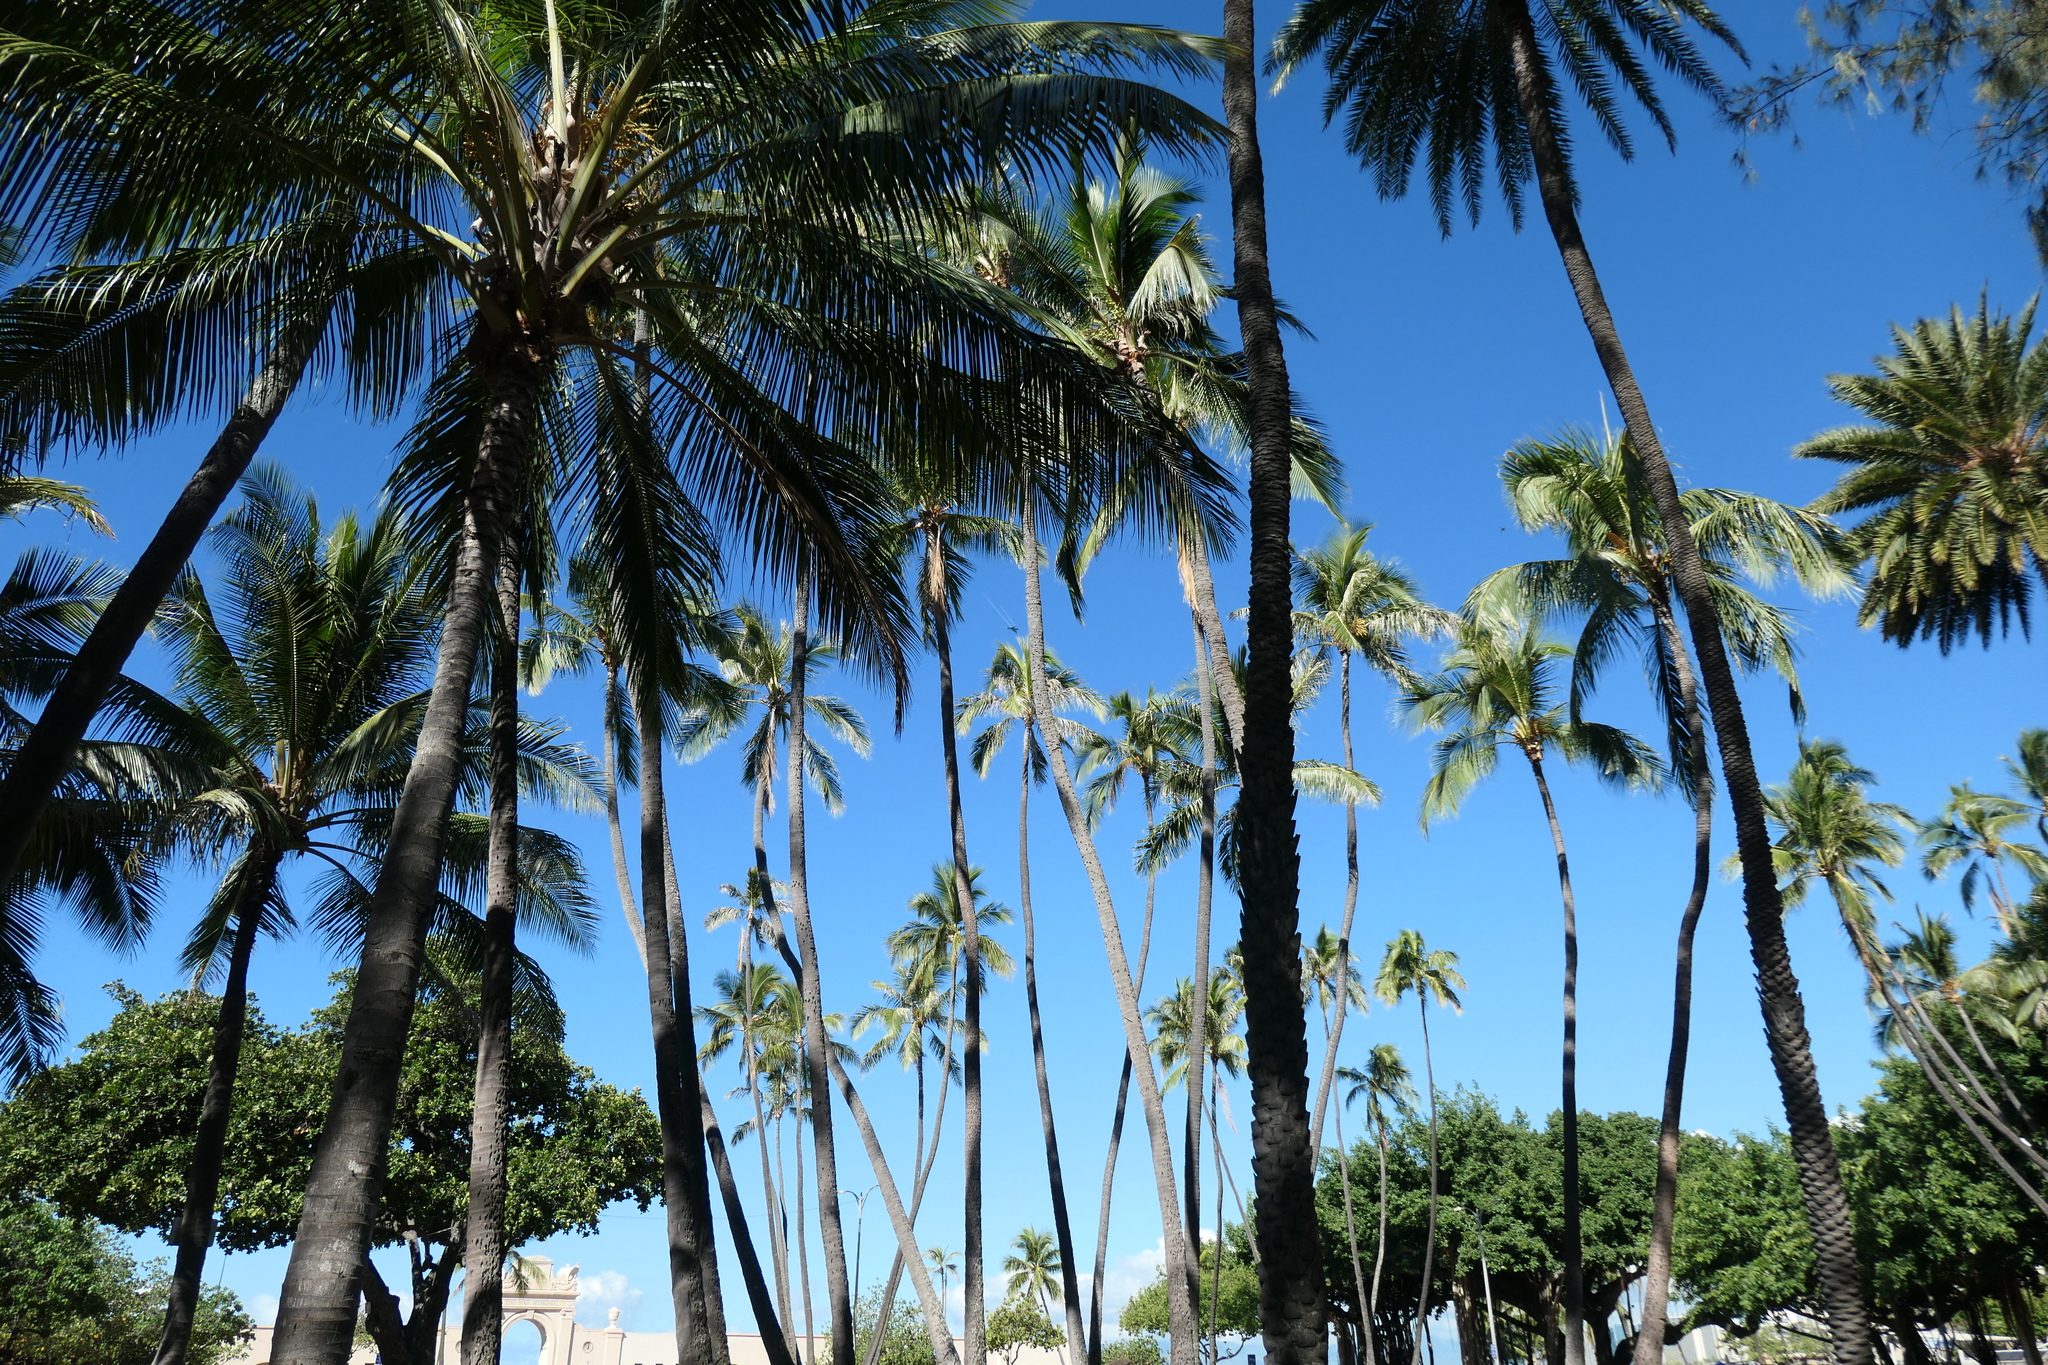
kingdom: Plantae
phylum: Tracheophyta
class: Liliopsida
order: Arecales
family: Arecaceae
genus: Cocos
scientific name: Cocos nucifera
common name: Coconut palm
